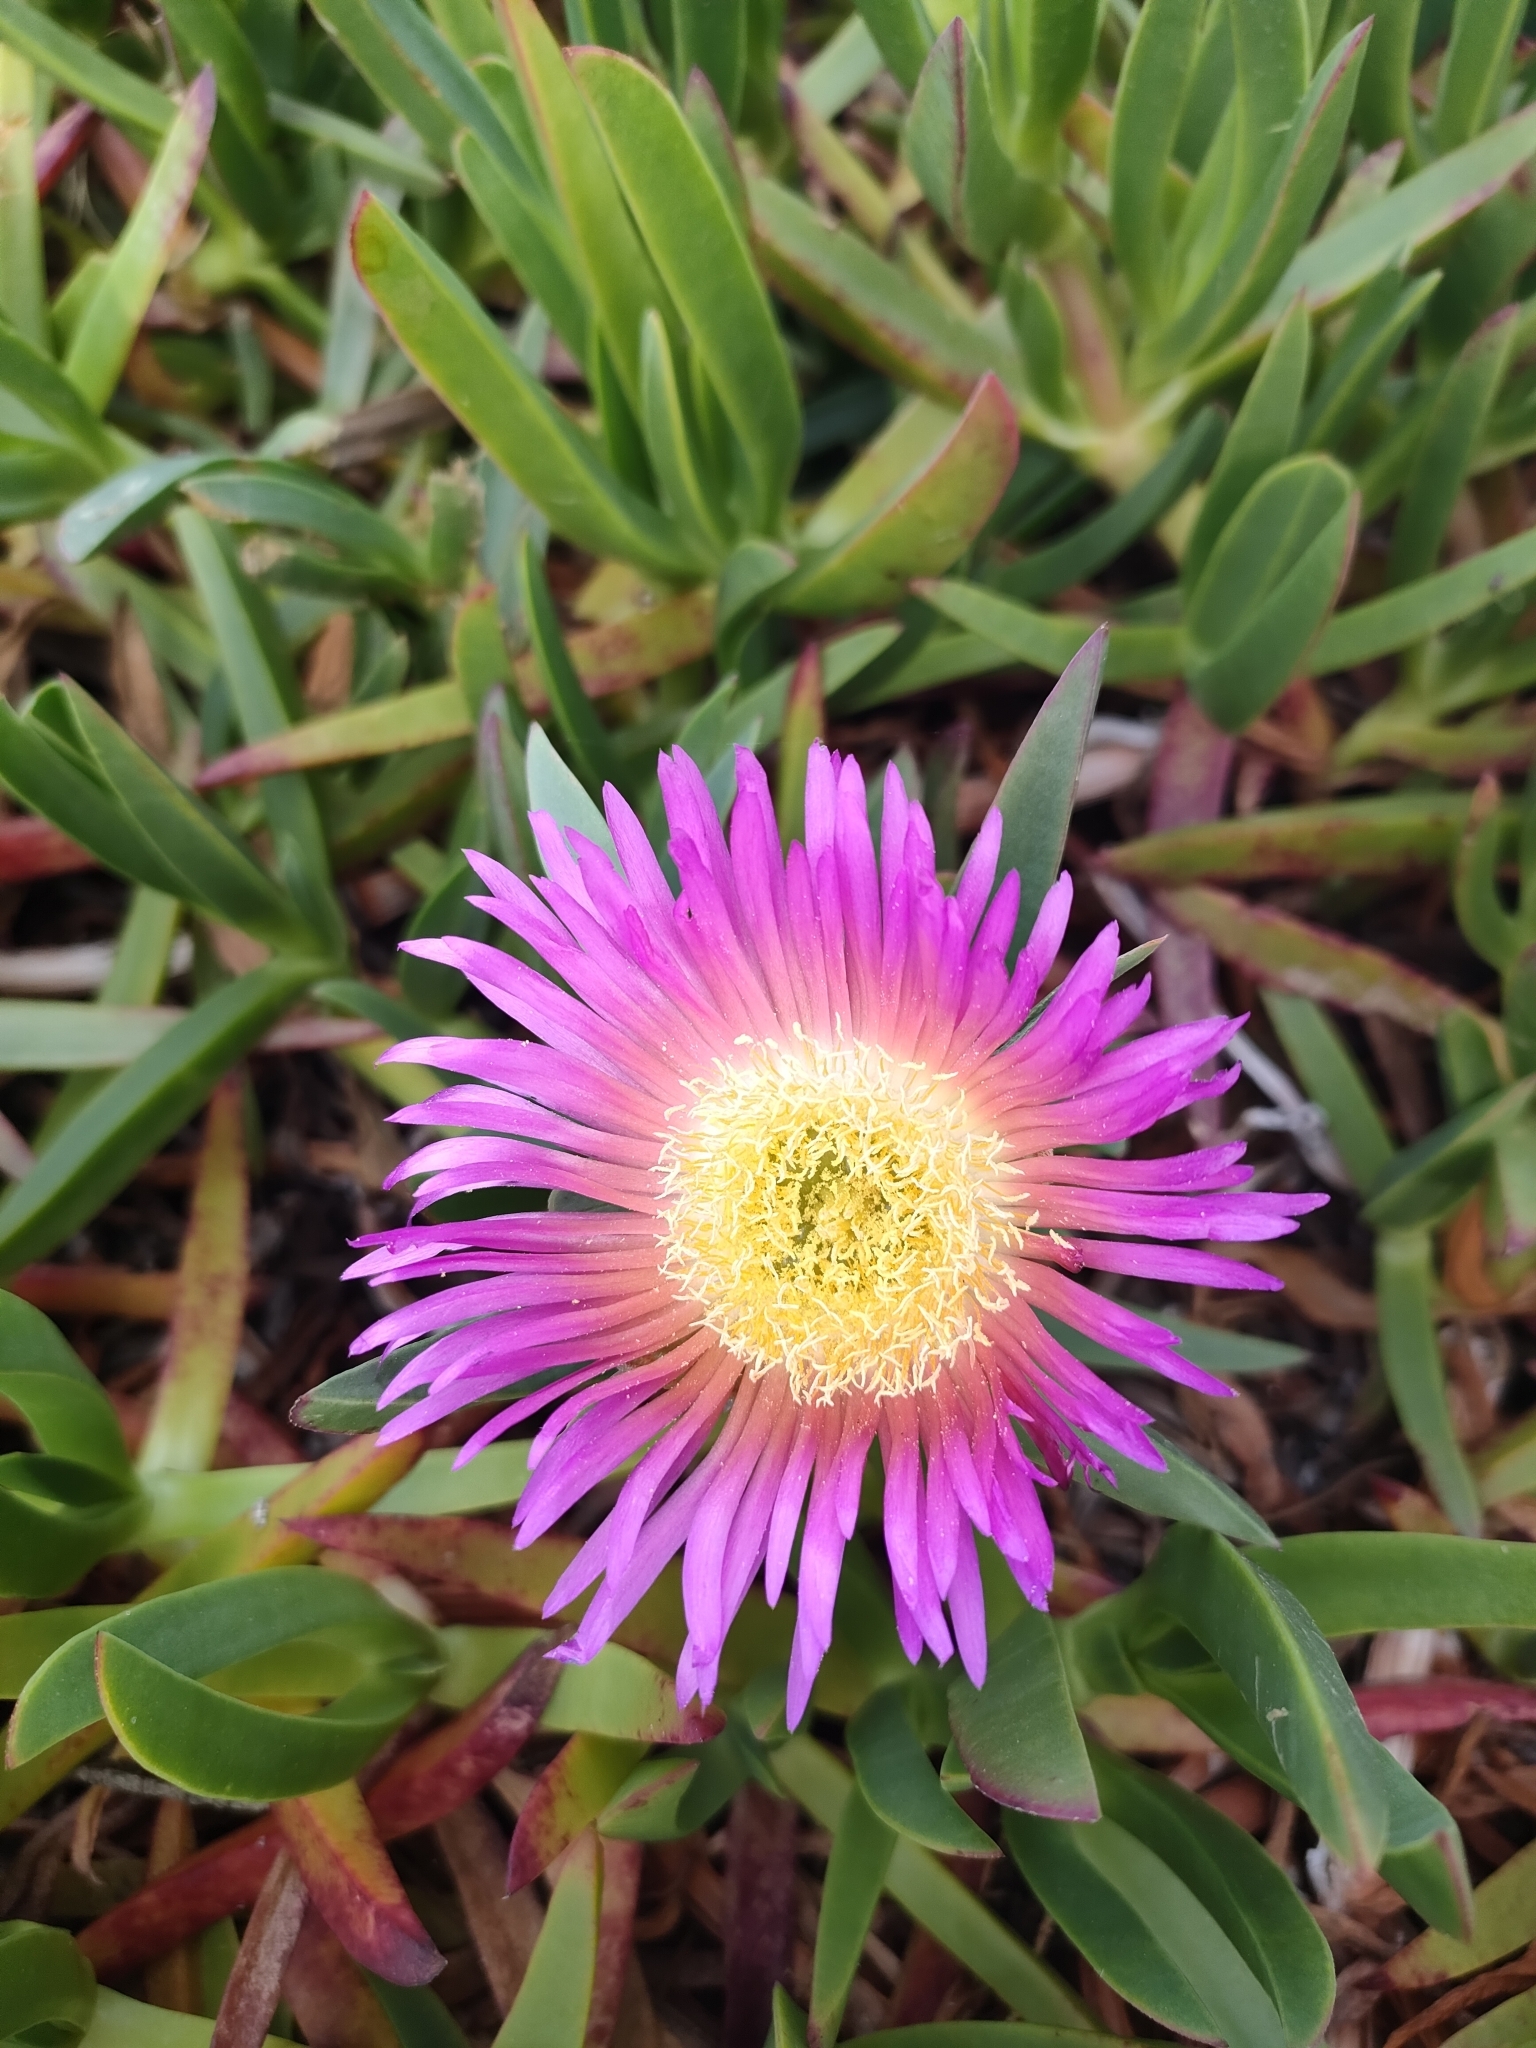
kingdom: Plantae
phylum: Tracheophyta
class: Magnoliopsida
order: Caryophyllales
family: Aizoaceae
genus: Carpobrotus
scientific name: Carpobrotus chilensis
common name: Sea fig
